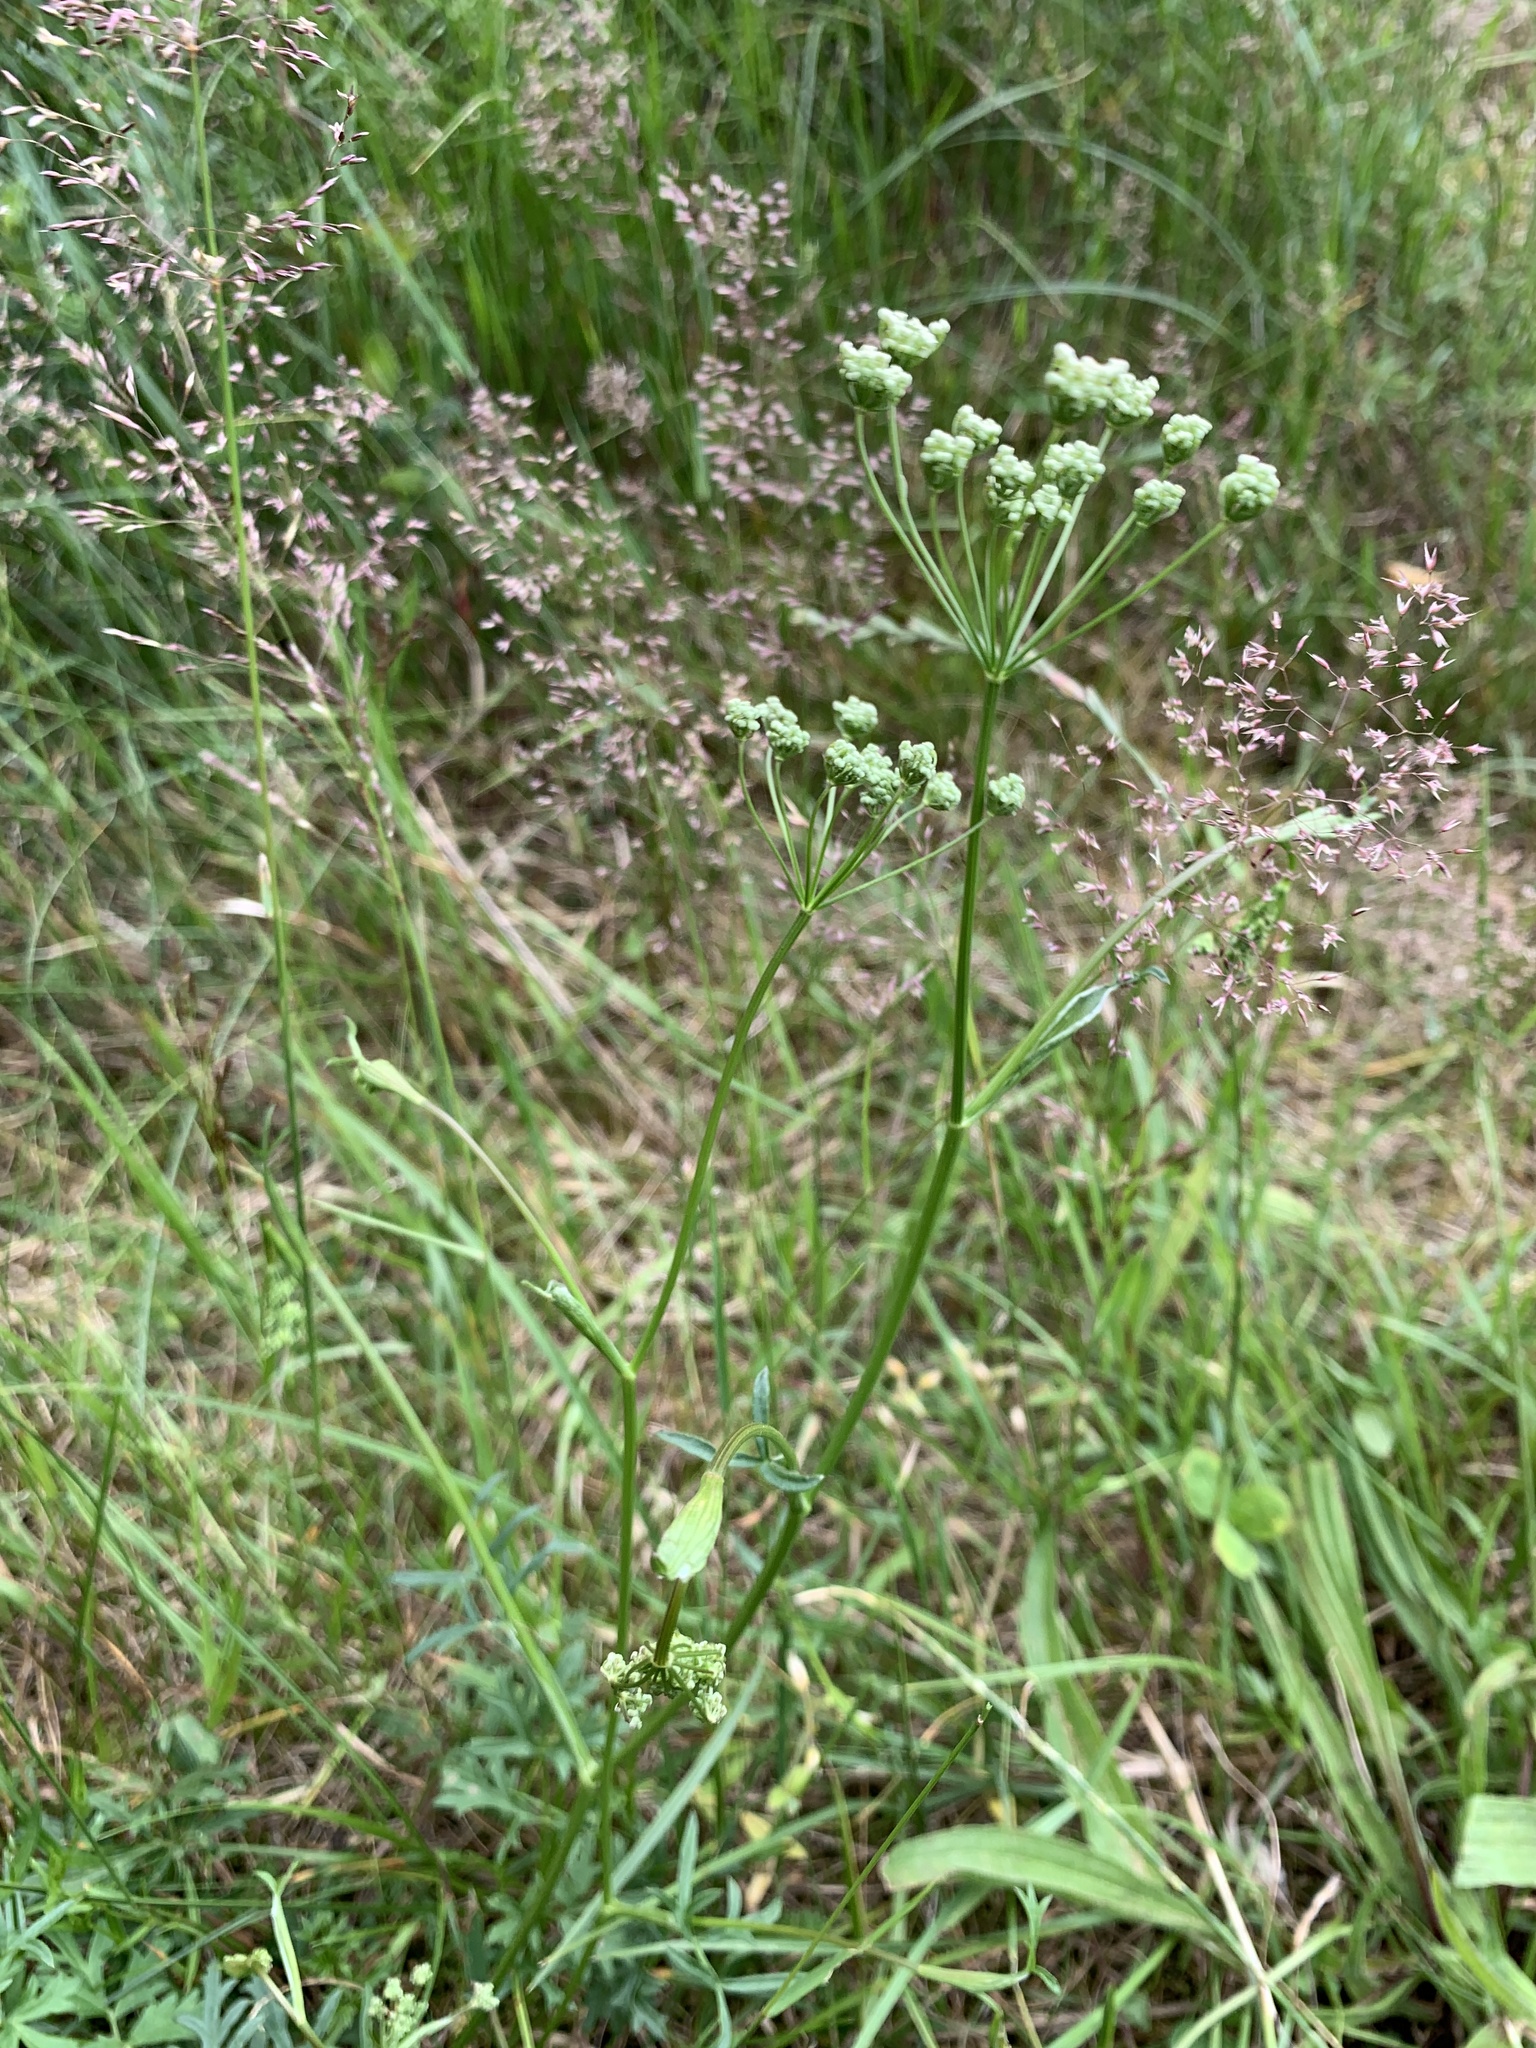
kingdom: Plantae
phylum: Tracheophyta
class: Magnoliopsida
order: Apiales
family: Apiaceae
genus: Pimpinella
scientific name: Pimpinella saxifraga
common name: Burnet-saxifrage
